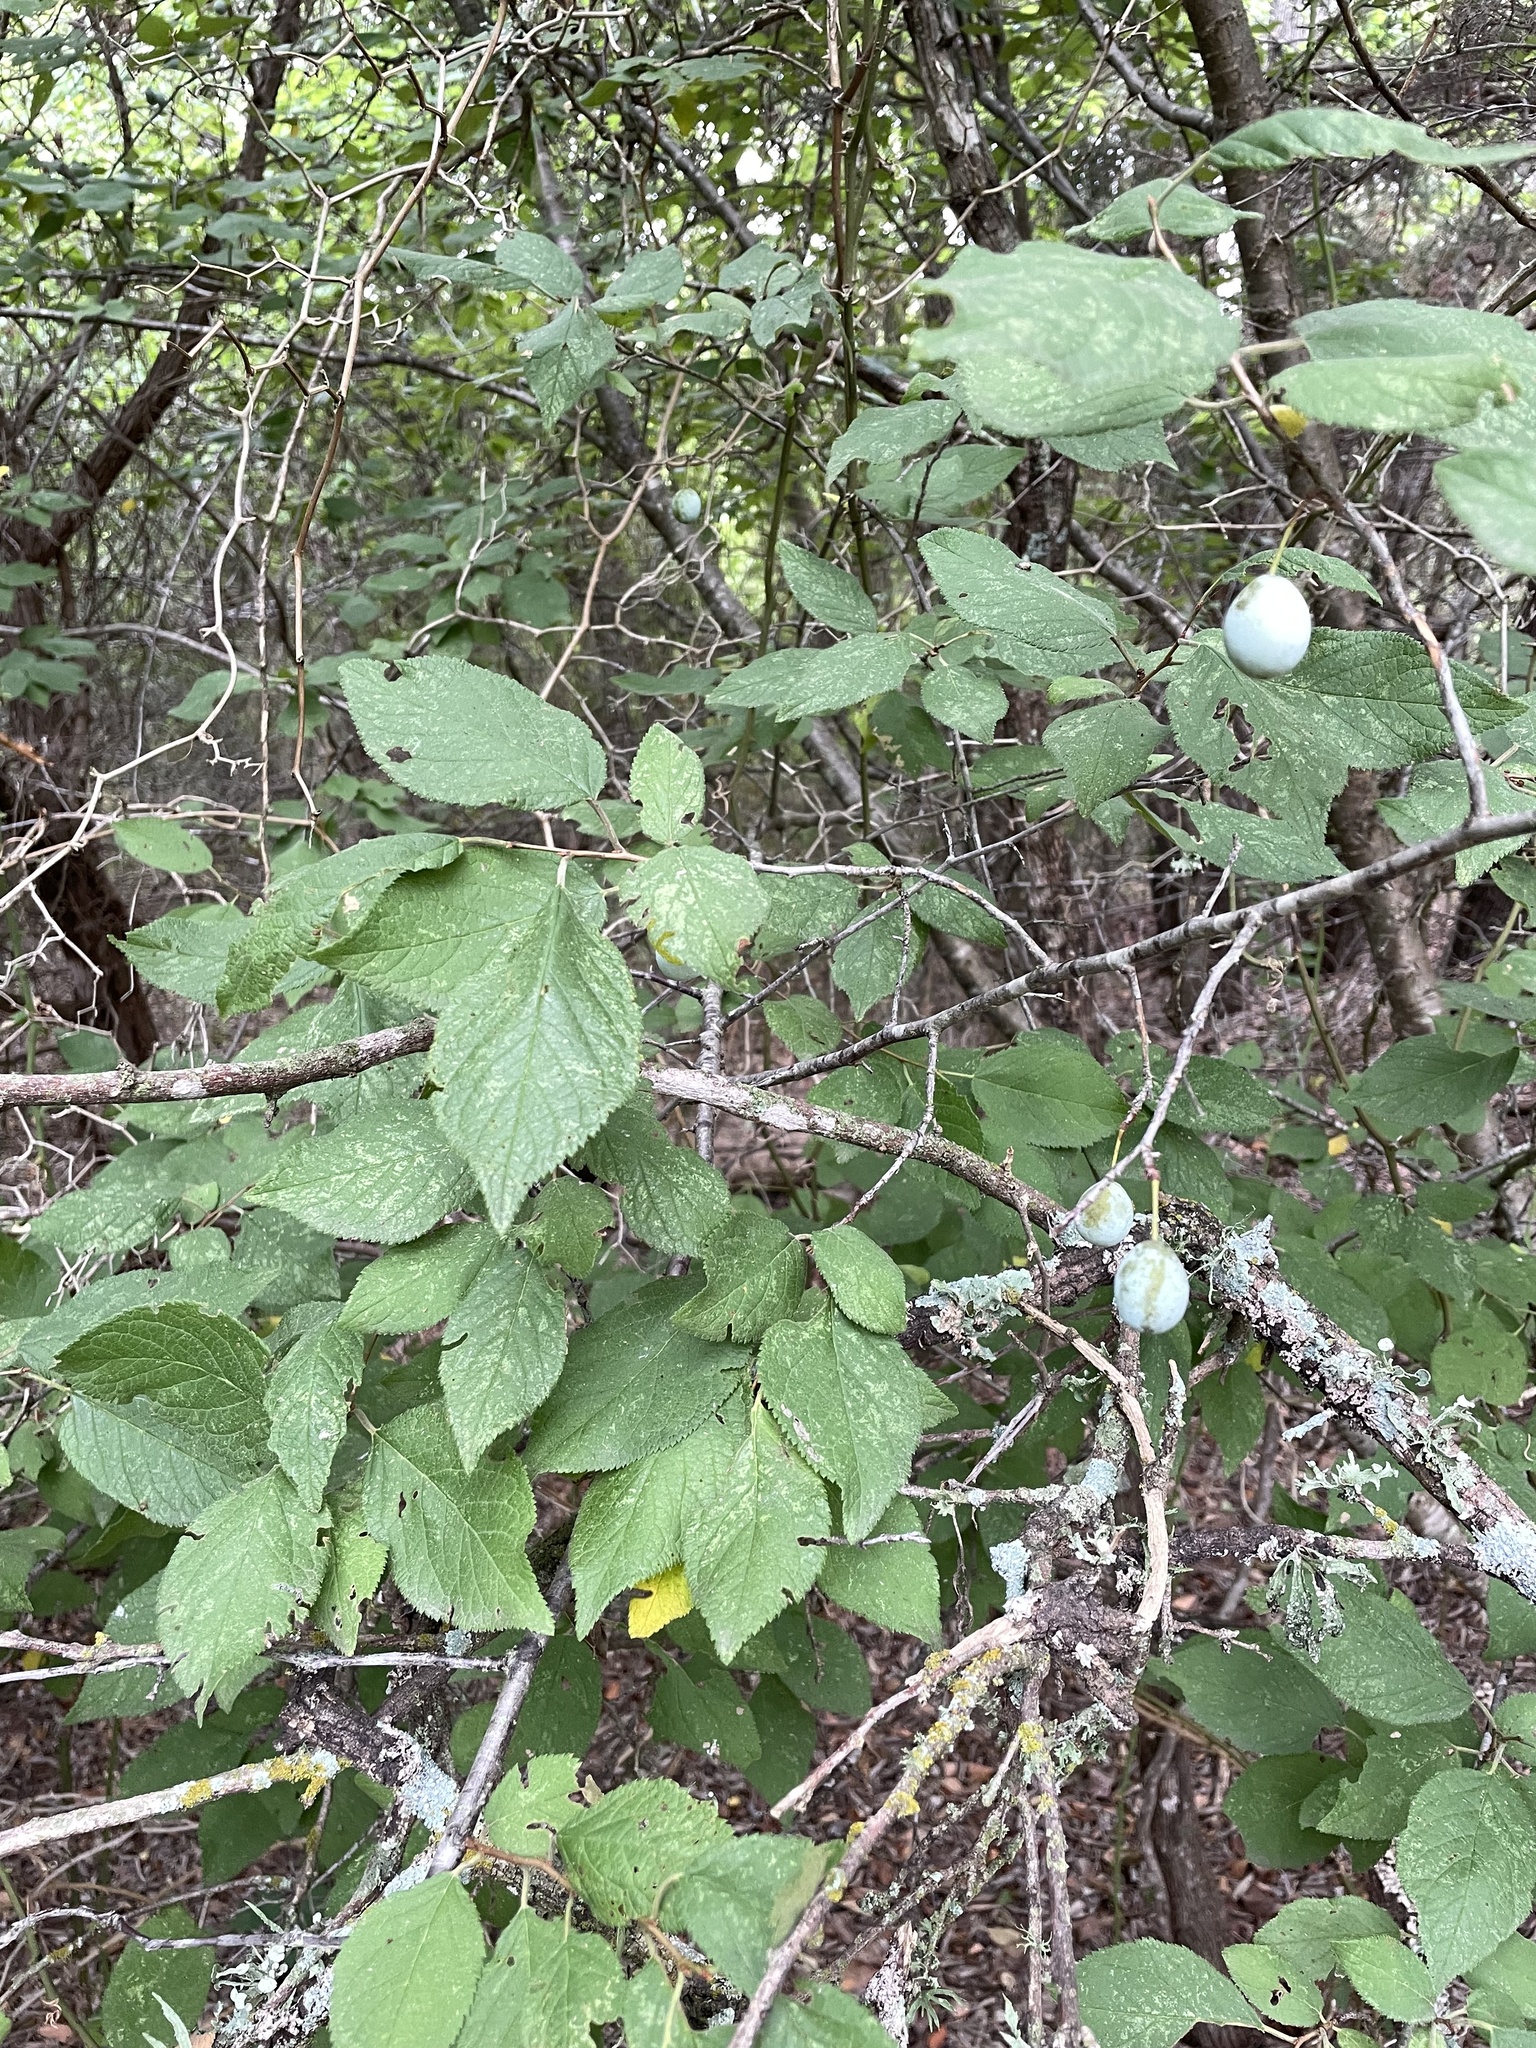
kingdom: Plantae
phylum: Tracheophyta
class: Magnoliopsida
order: Rosales
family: Rosaceae
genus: Prunus
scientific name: Prunus mexicana
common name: Mexican plum
